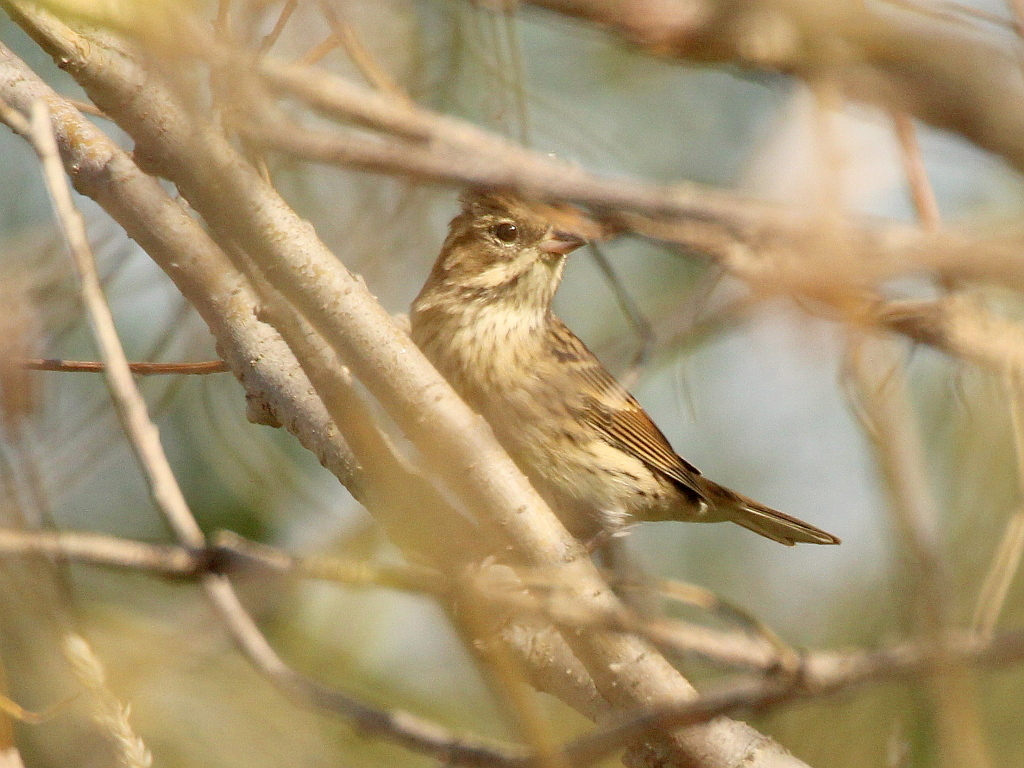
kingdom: Animalia
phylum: Chordata
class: Aves
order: Passeriformes
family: Emberizidae
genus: Emberiza
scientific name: Emberiza spodocephala
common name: Black-faced bunting
